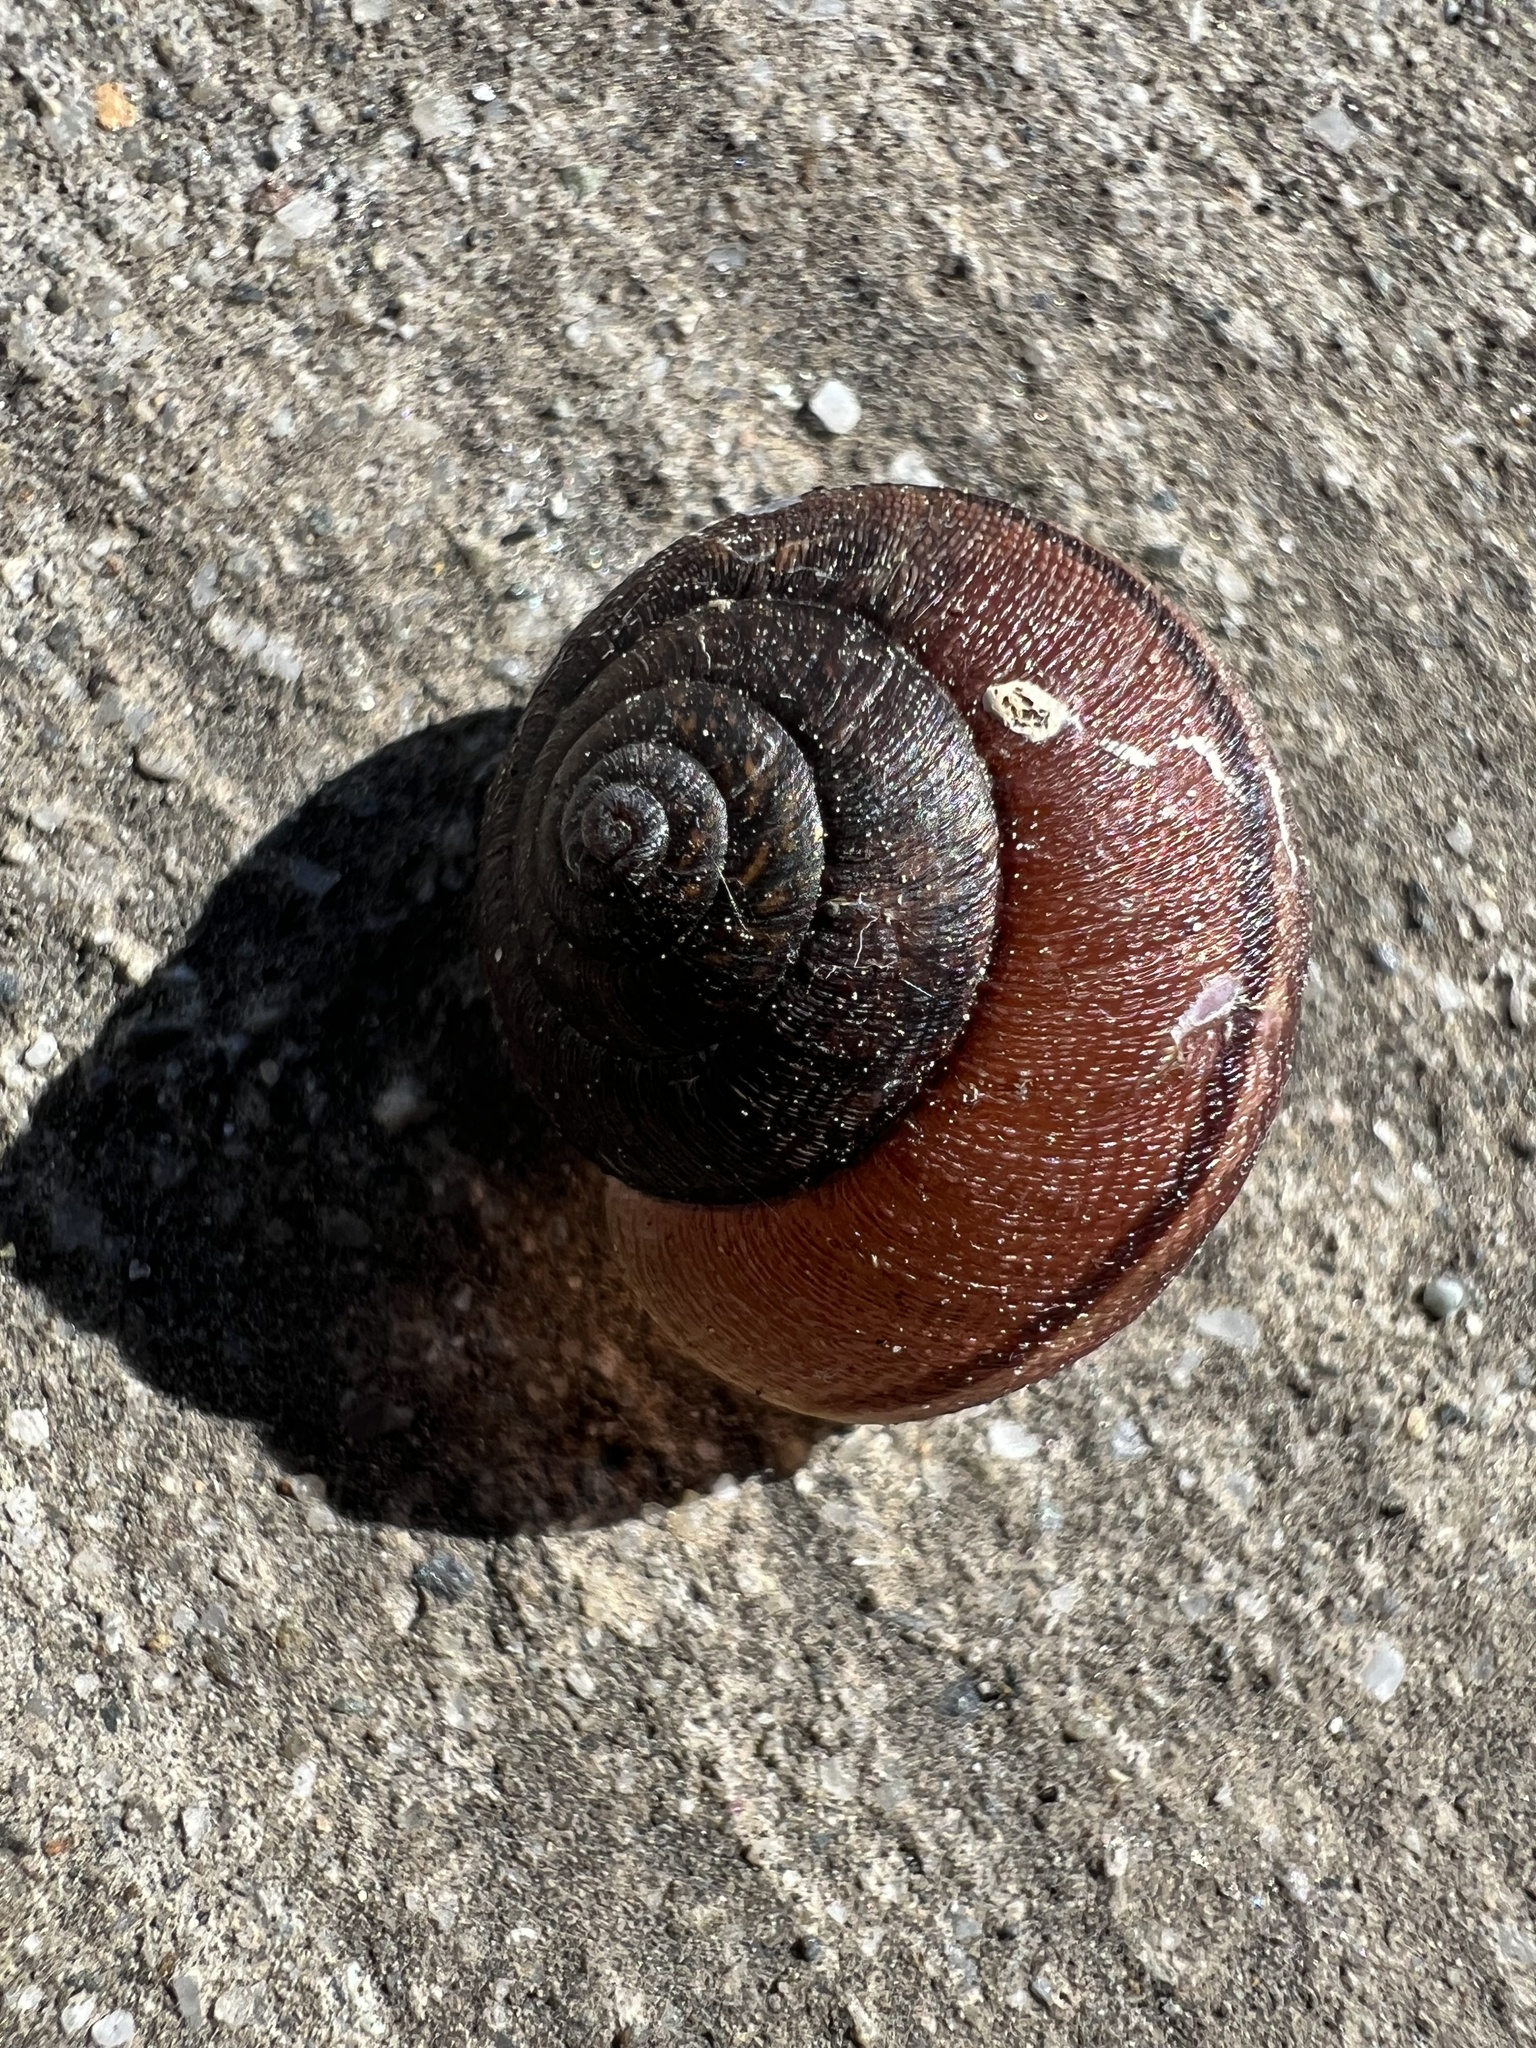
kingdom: Animalia
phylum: Mollusca
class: Gastropoda
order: Stylommatophora
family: Xanthonychidae
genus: Helminthoglypta
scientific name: Helminthoglypta nickliniana
